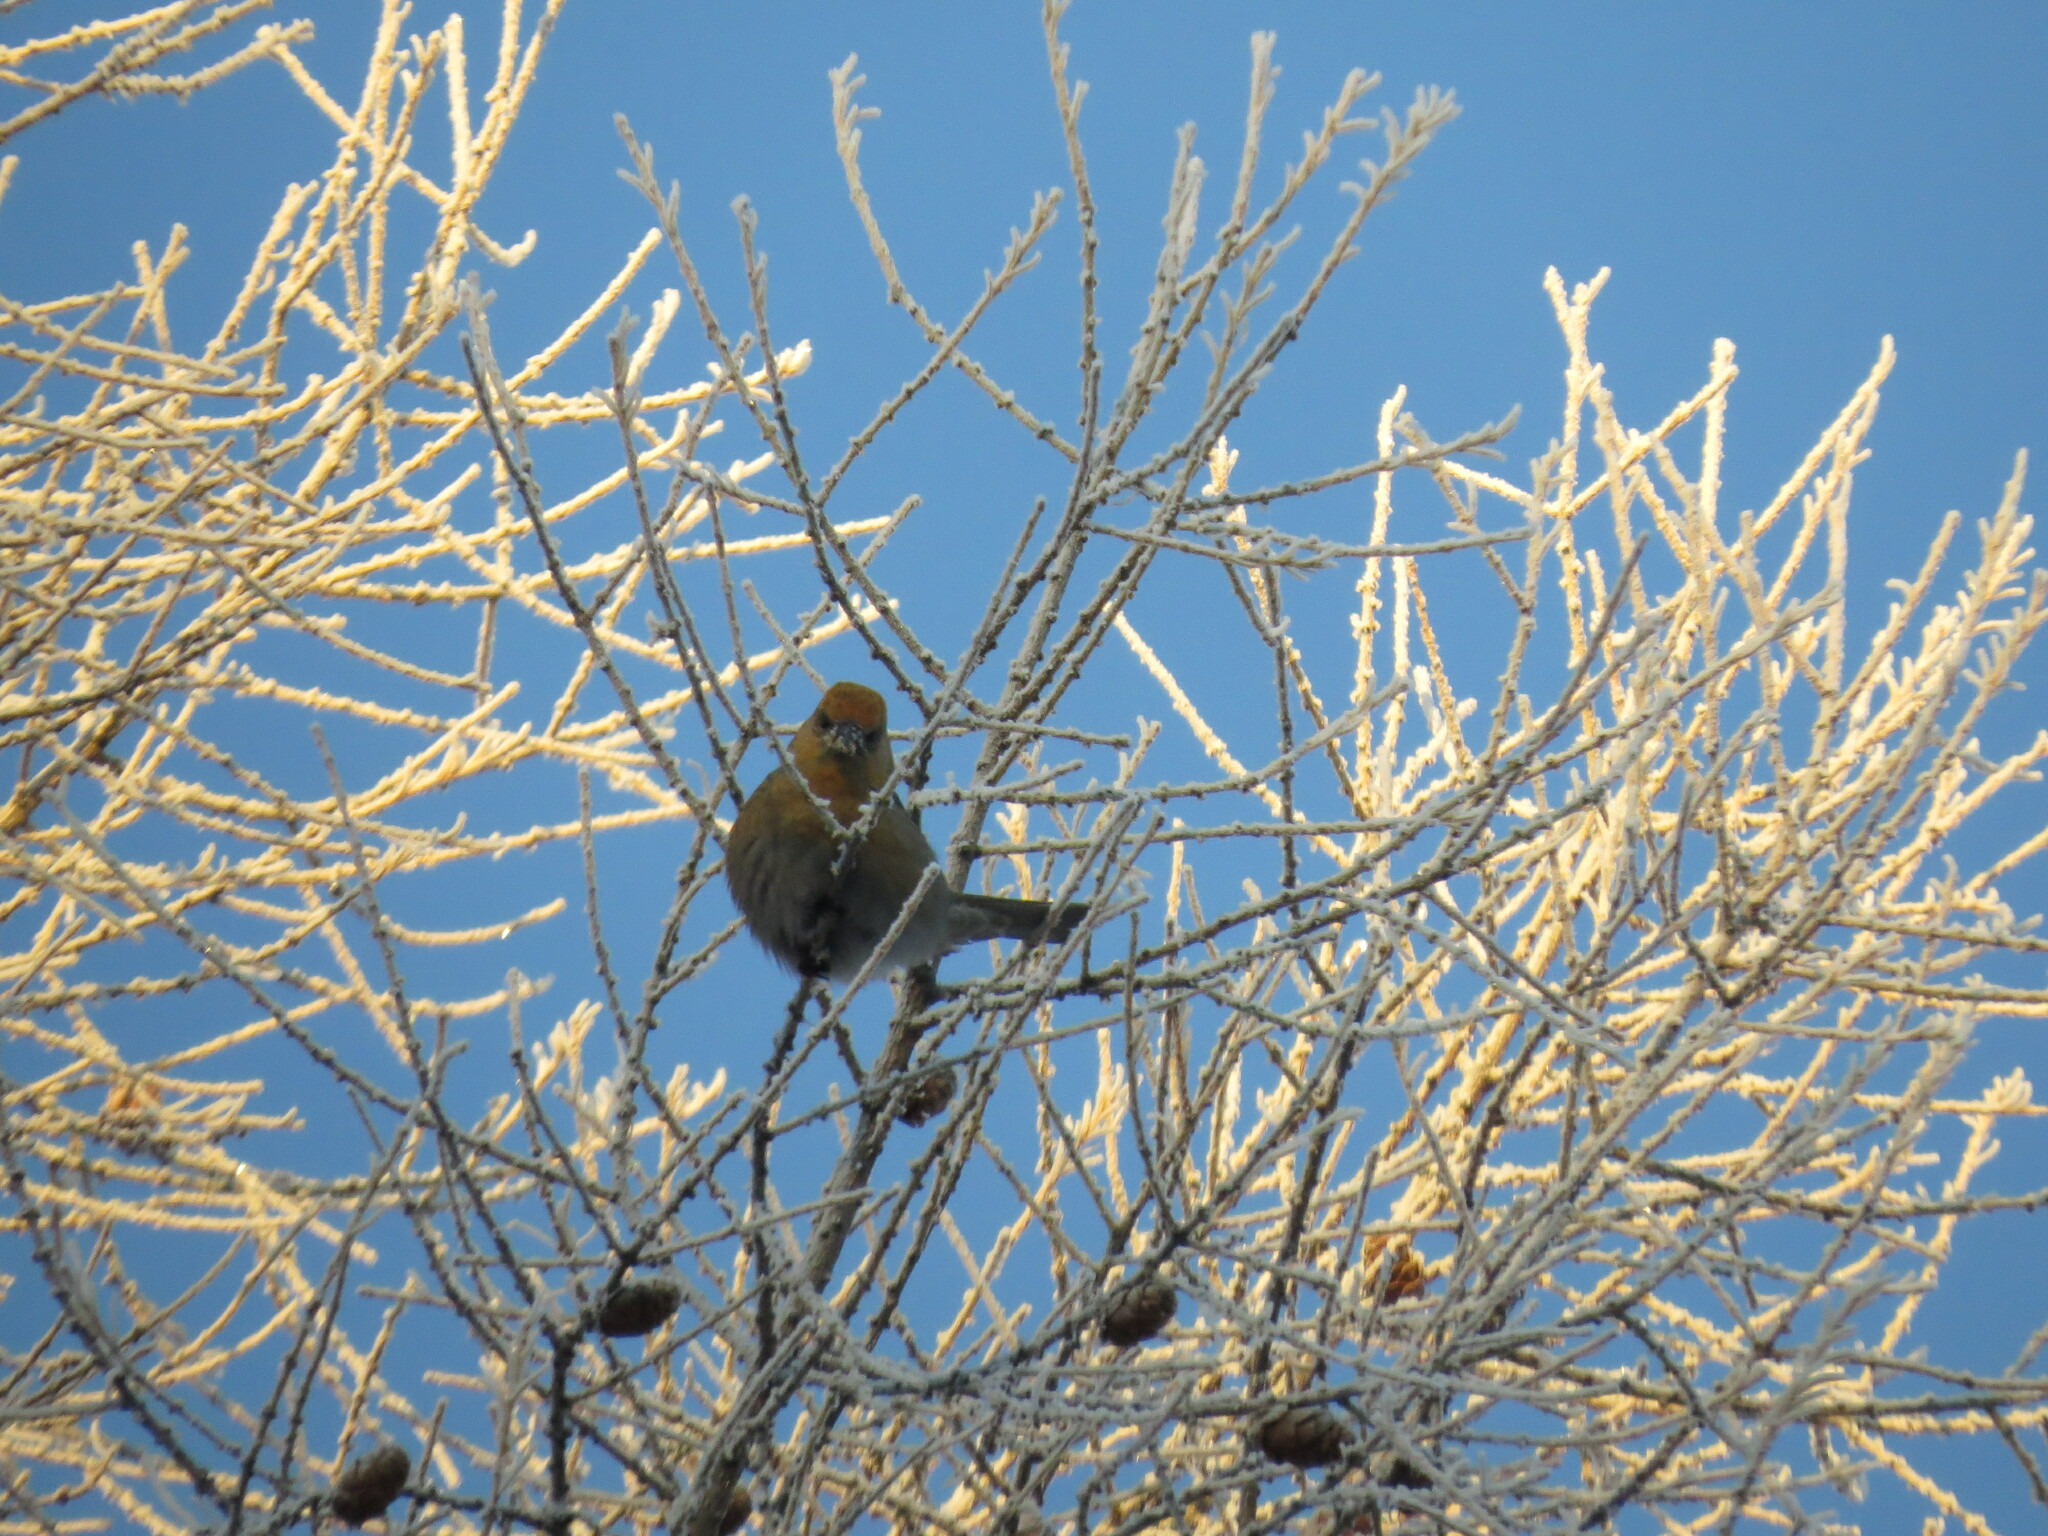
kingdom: Animalia
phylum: Chordata
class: Aves
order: Passeriformes
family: Fringillidae
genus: Pinicola
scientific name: Pinicola enucleator
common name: Pine grosbeak
